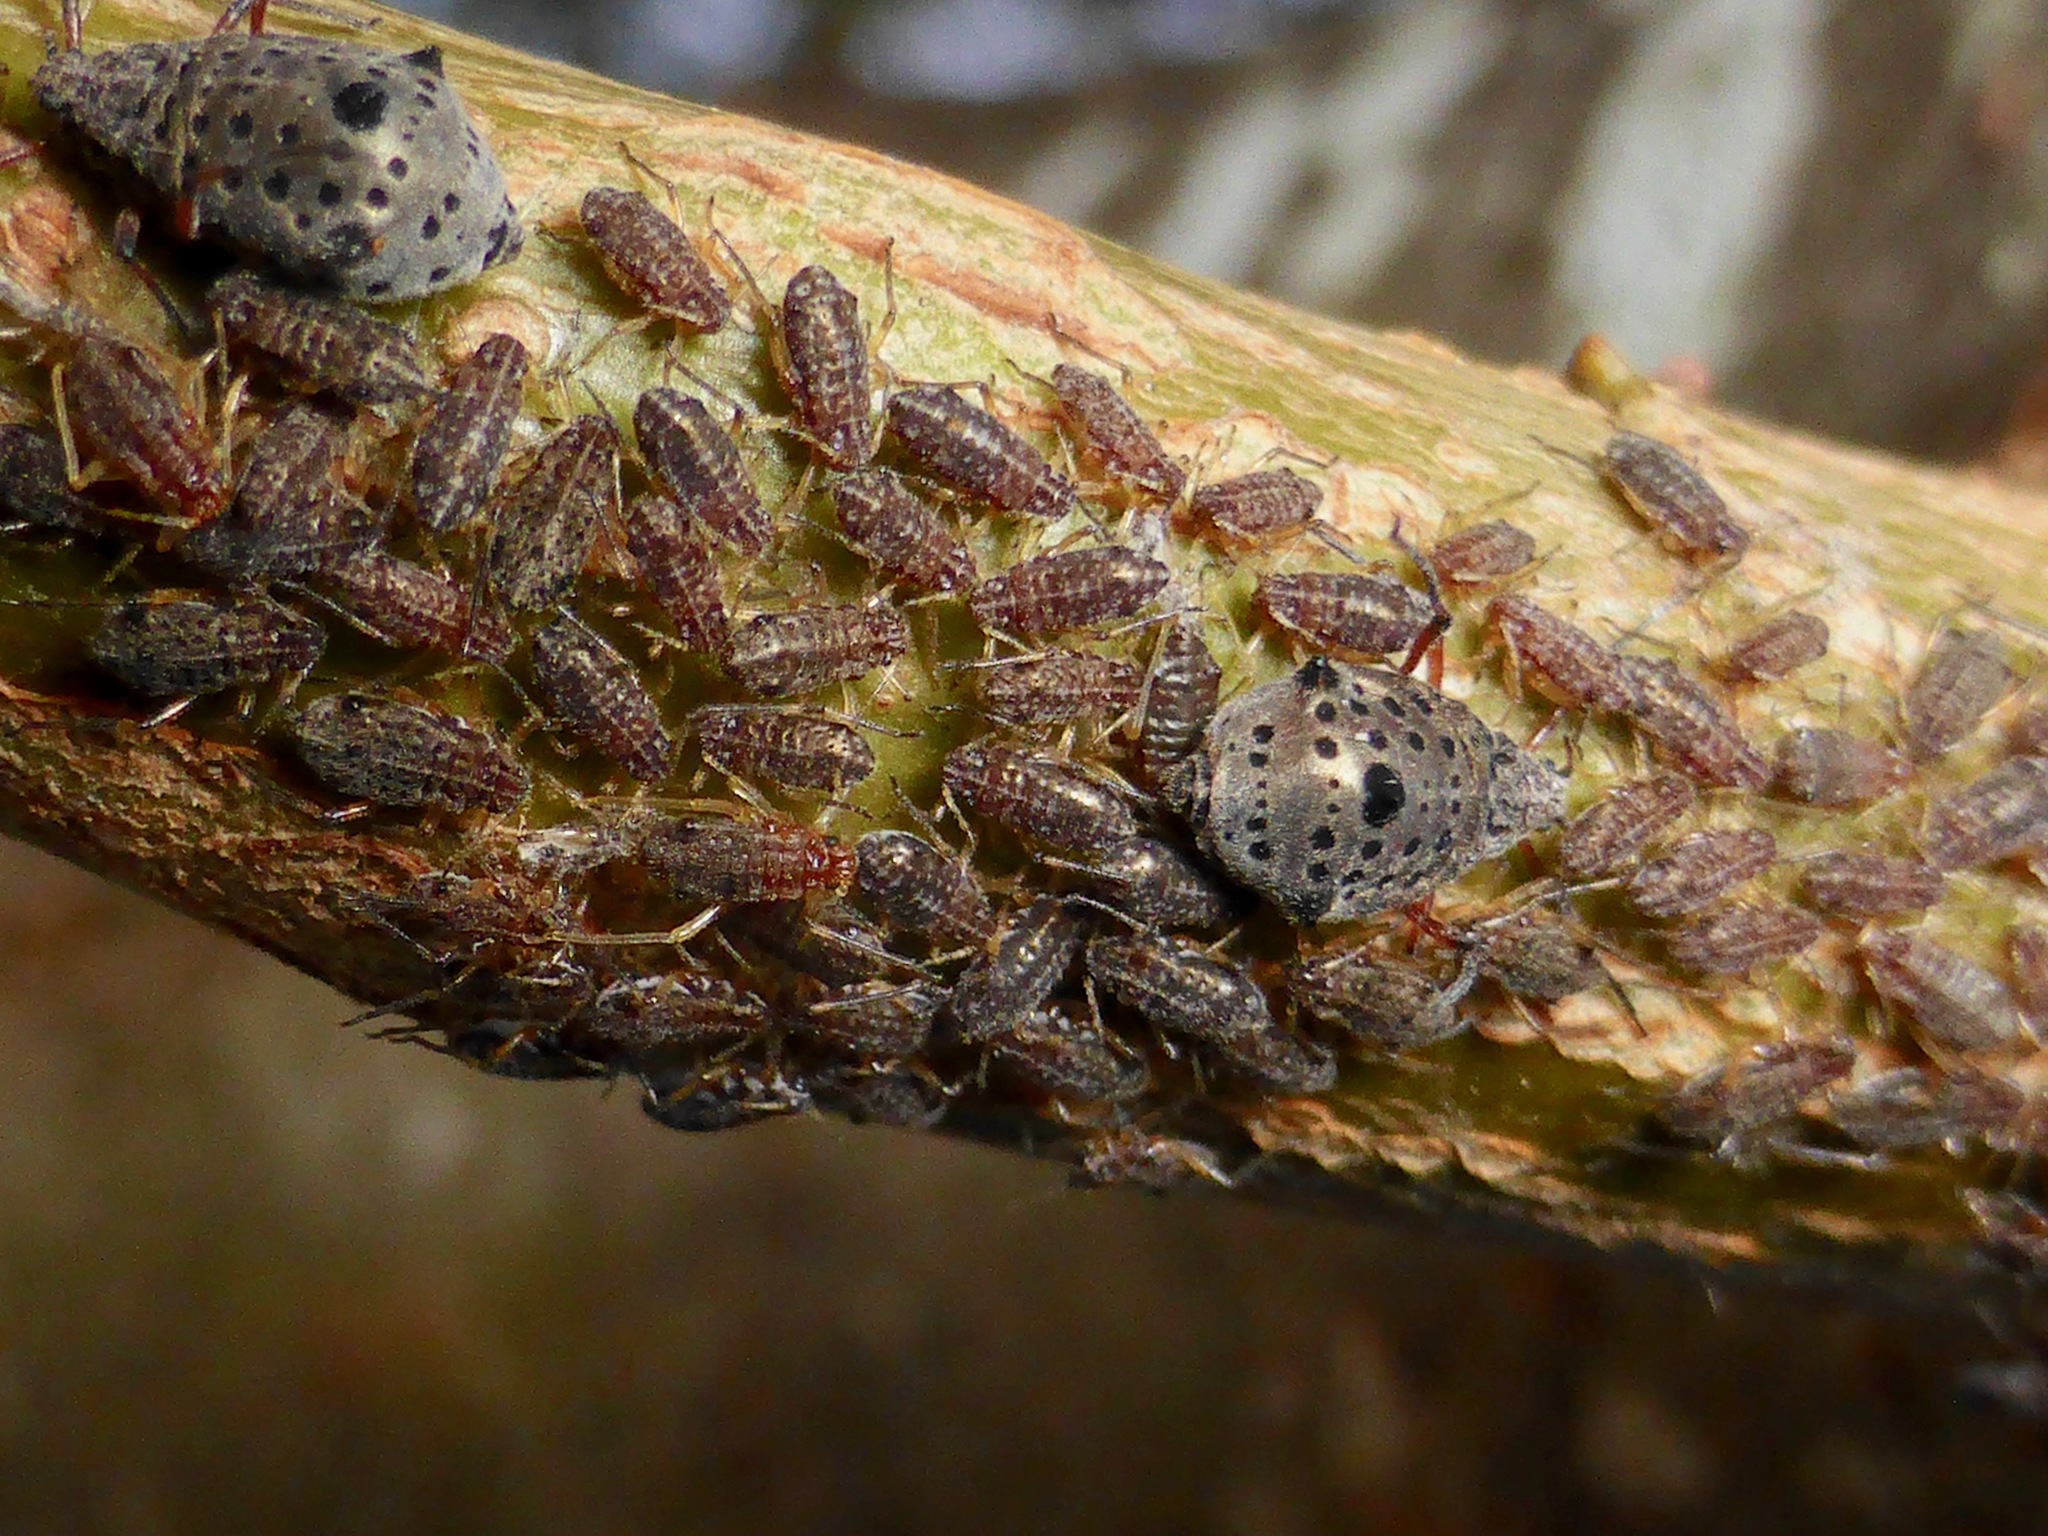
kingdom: Animalia
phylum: Arthropoda
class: Insecta
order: Hemiptera
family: Aphididae
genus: Tuberolachnus
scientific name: Tuberolachnus salignus
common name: Giant willow aphid
